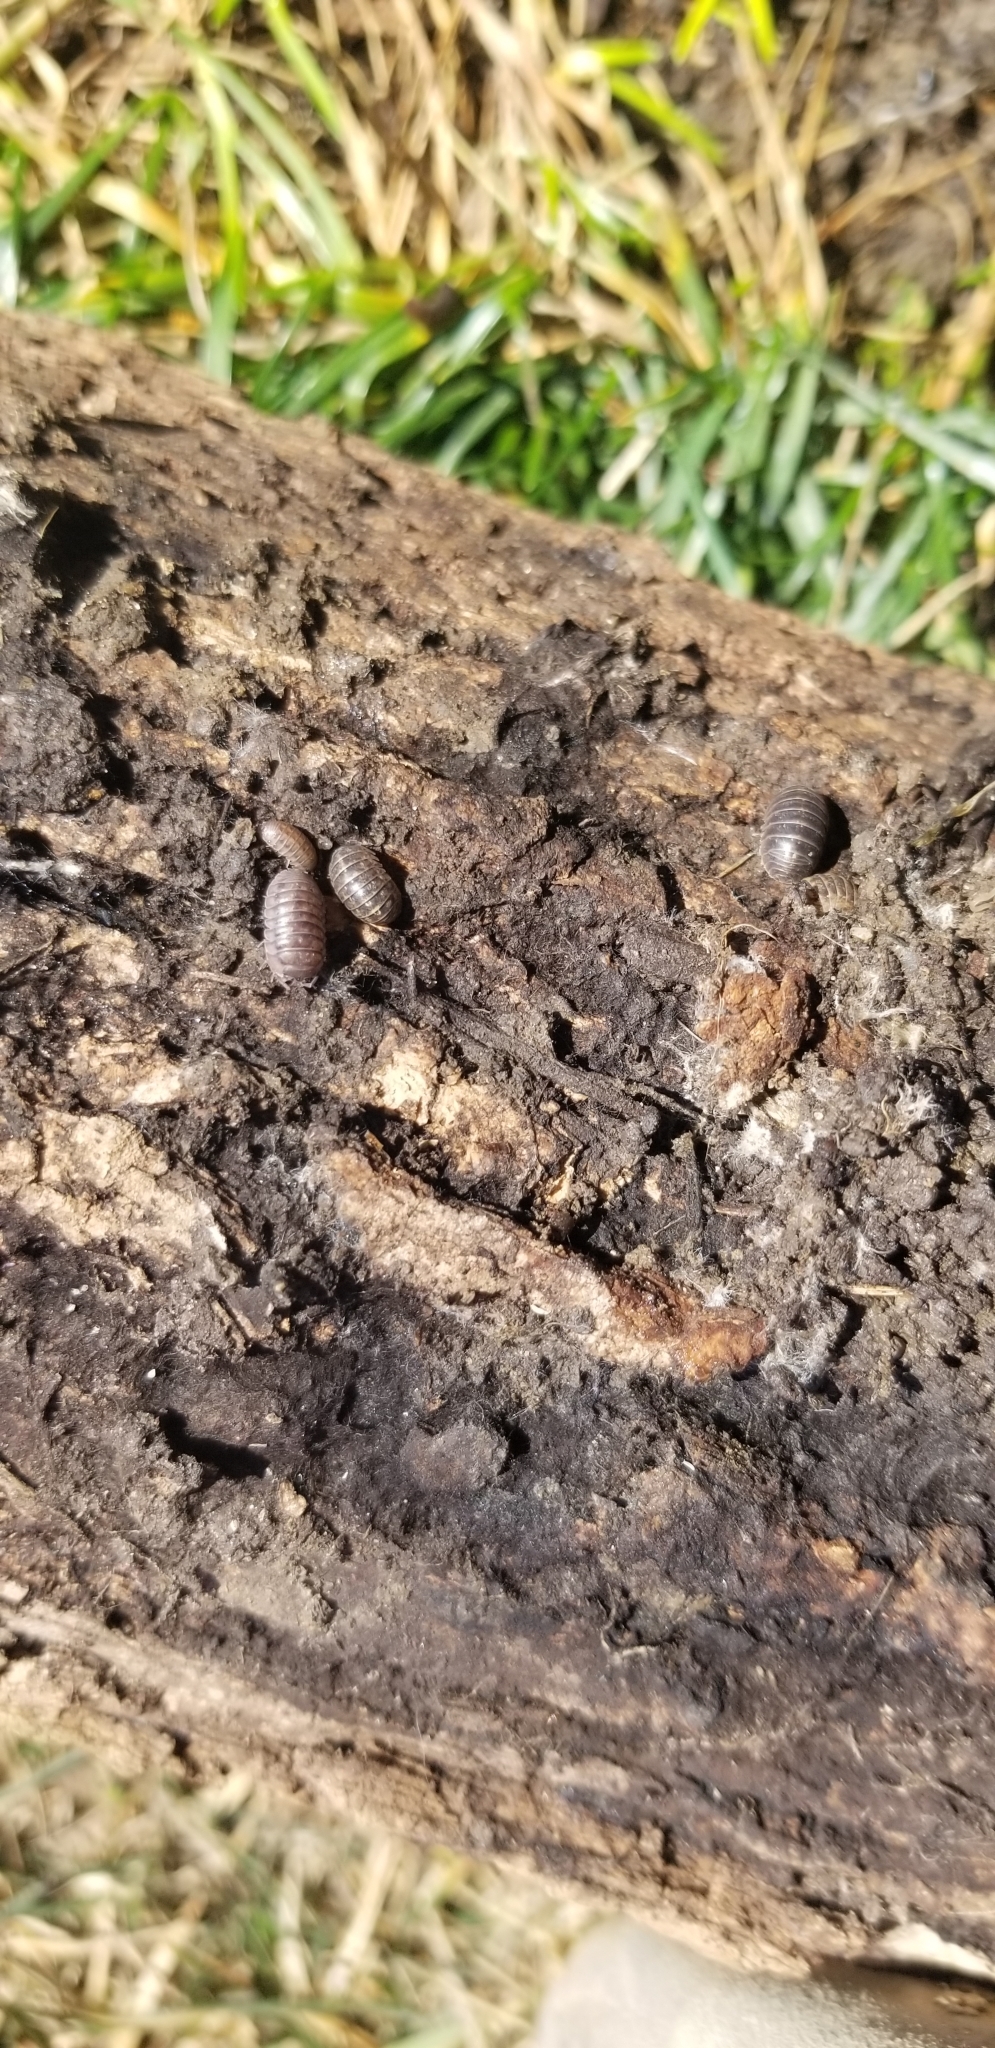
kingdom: Animalia
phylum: Arthropoda
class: Malacostraca
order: Isopoda
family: Armadillidiidae
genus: Armadillidium
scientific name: Armadillidium vulgare
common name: Common pill woodlouse
